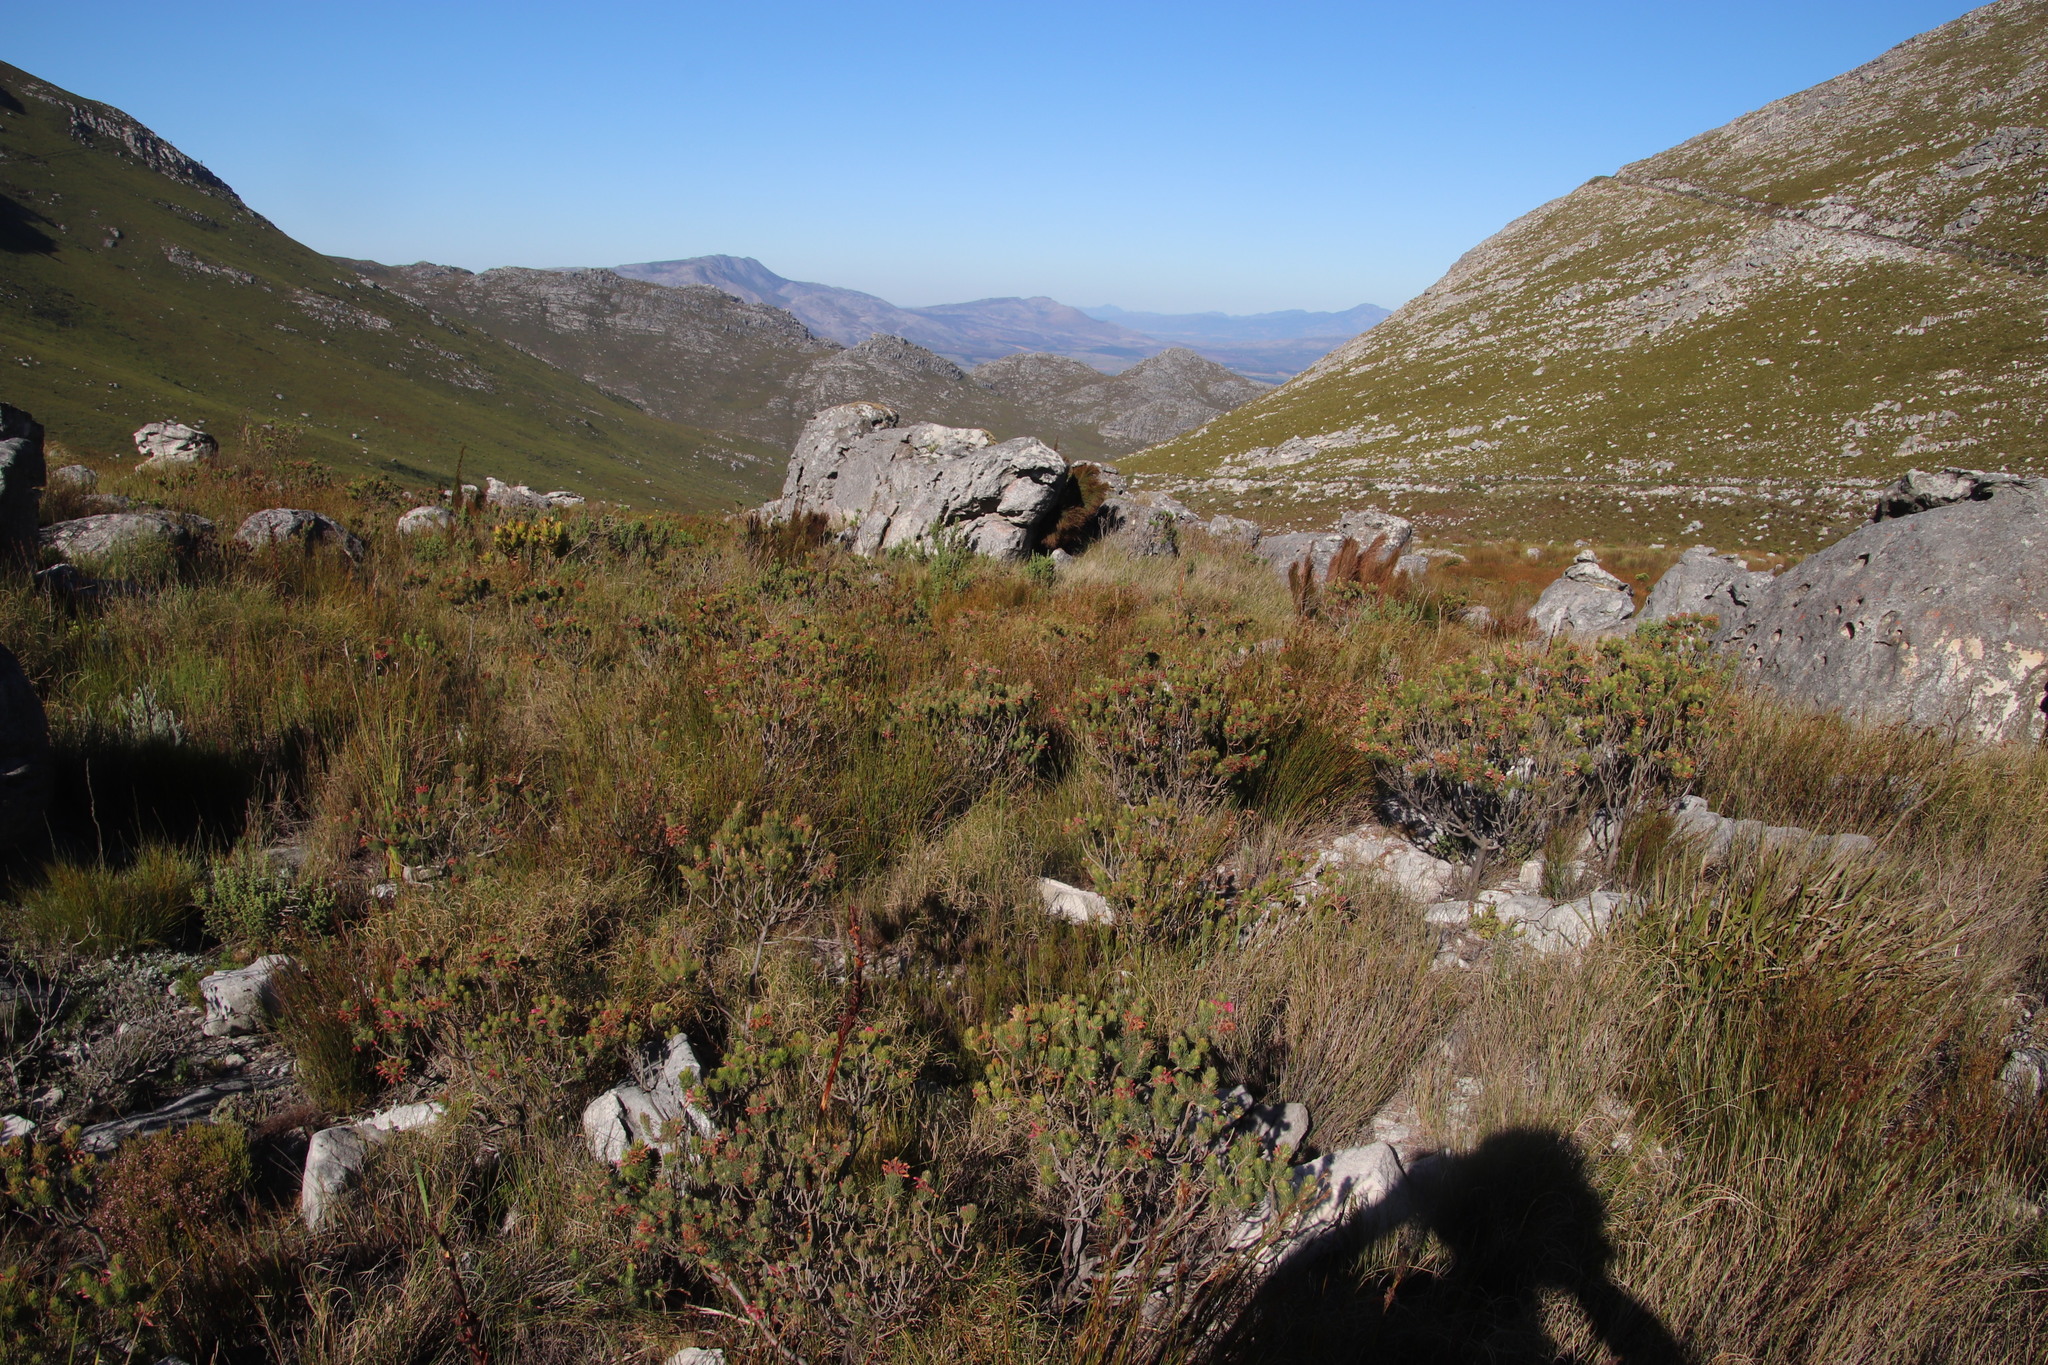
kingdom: Plantae
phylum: Tracheophyta
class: Magnoliopsida
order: Ericales
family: Ericaceae
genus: Erica
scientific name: Erica viscaria
